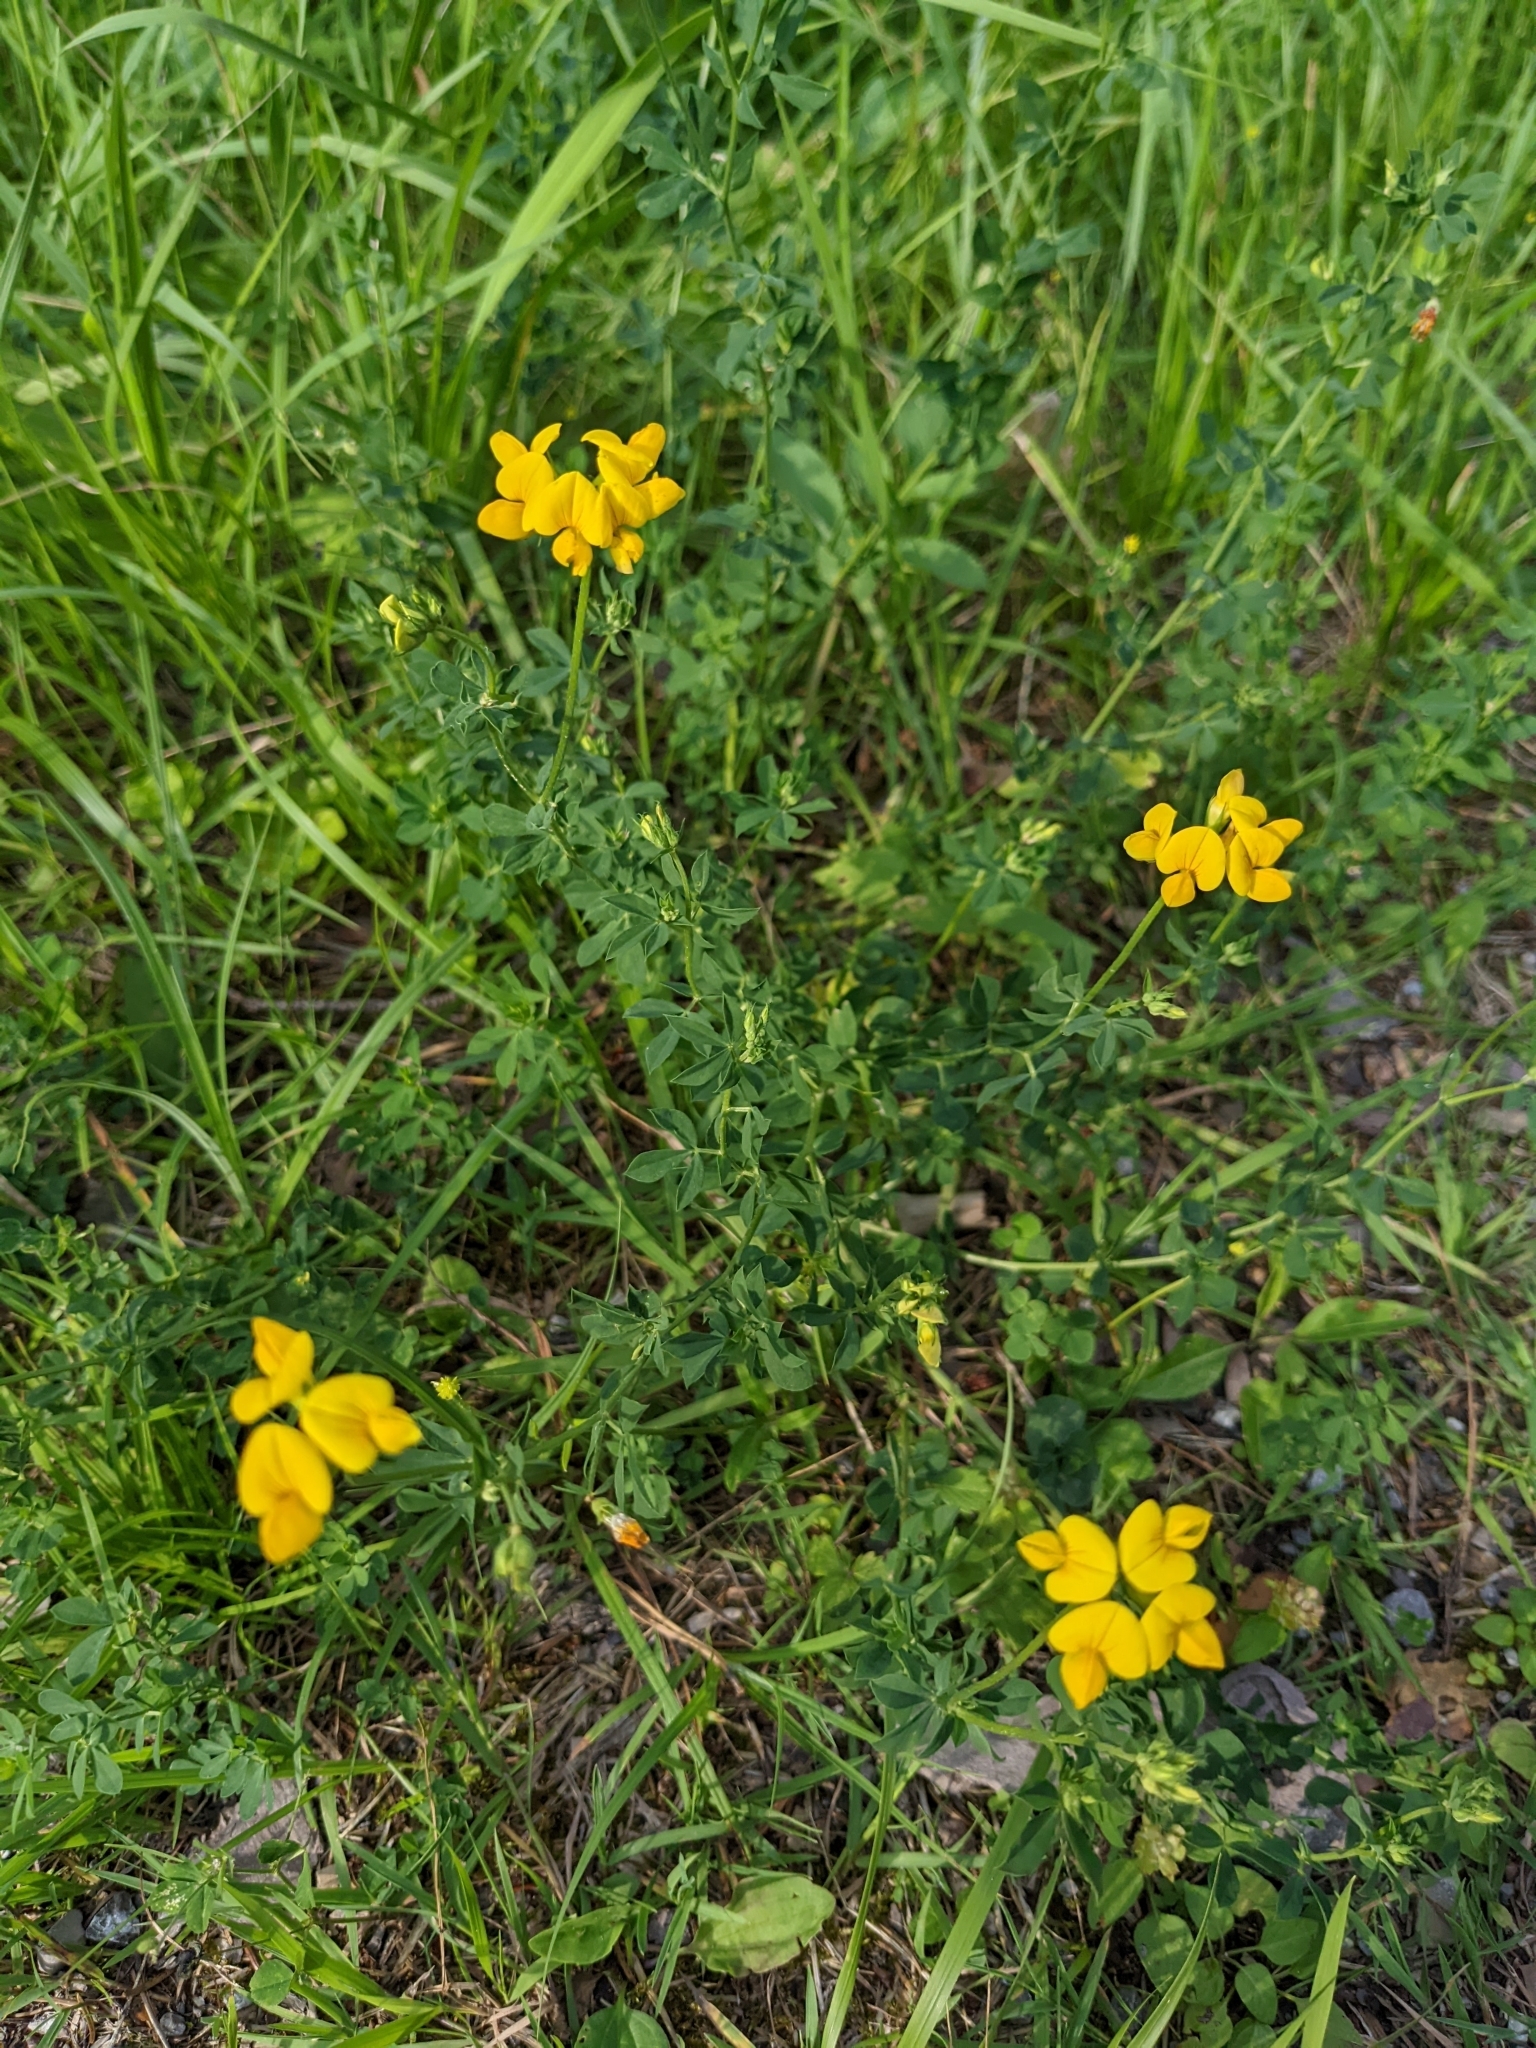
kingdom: Plantae
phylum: Tracheophyta
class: Magnoliopsida
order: Fabales
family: Fabaceae
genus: Lotus
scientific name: Lotus corniculatus
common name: Common bird's-foot-trefoil
